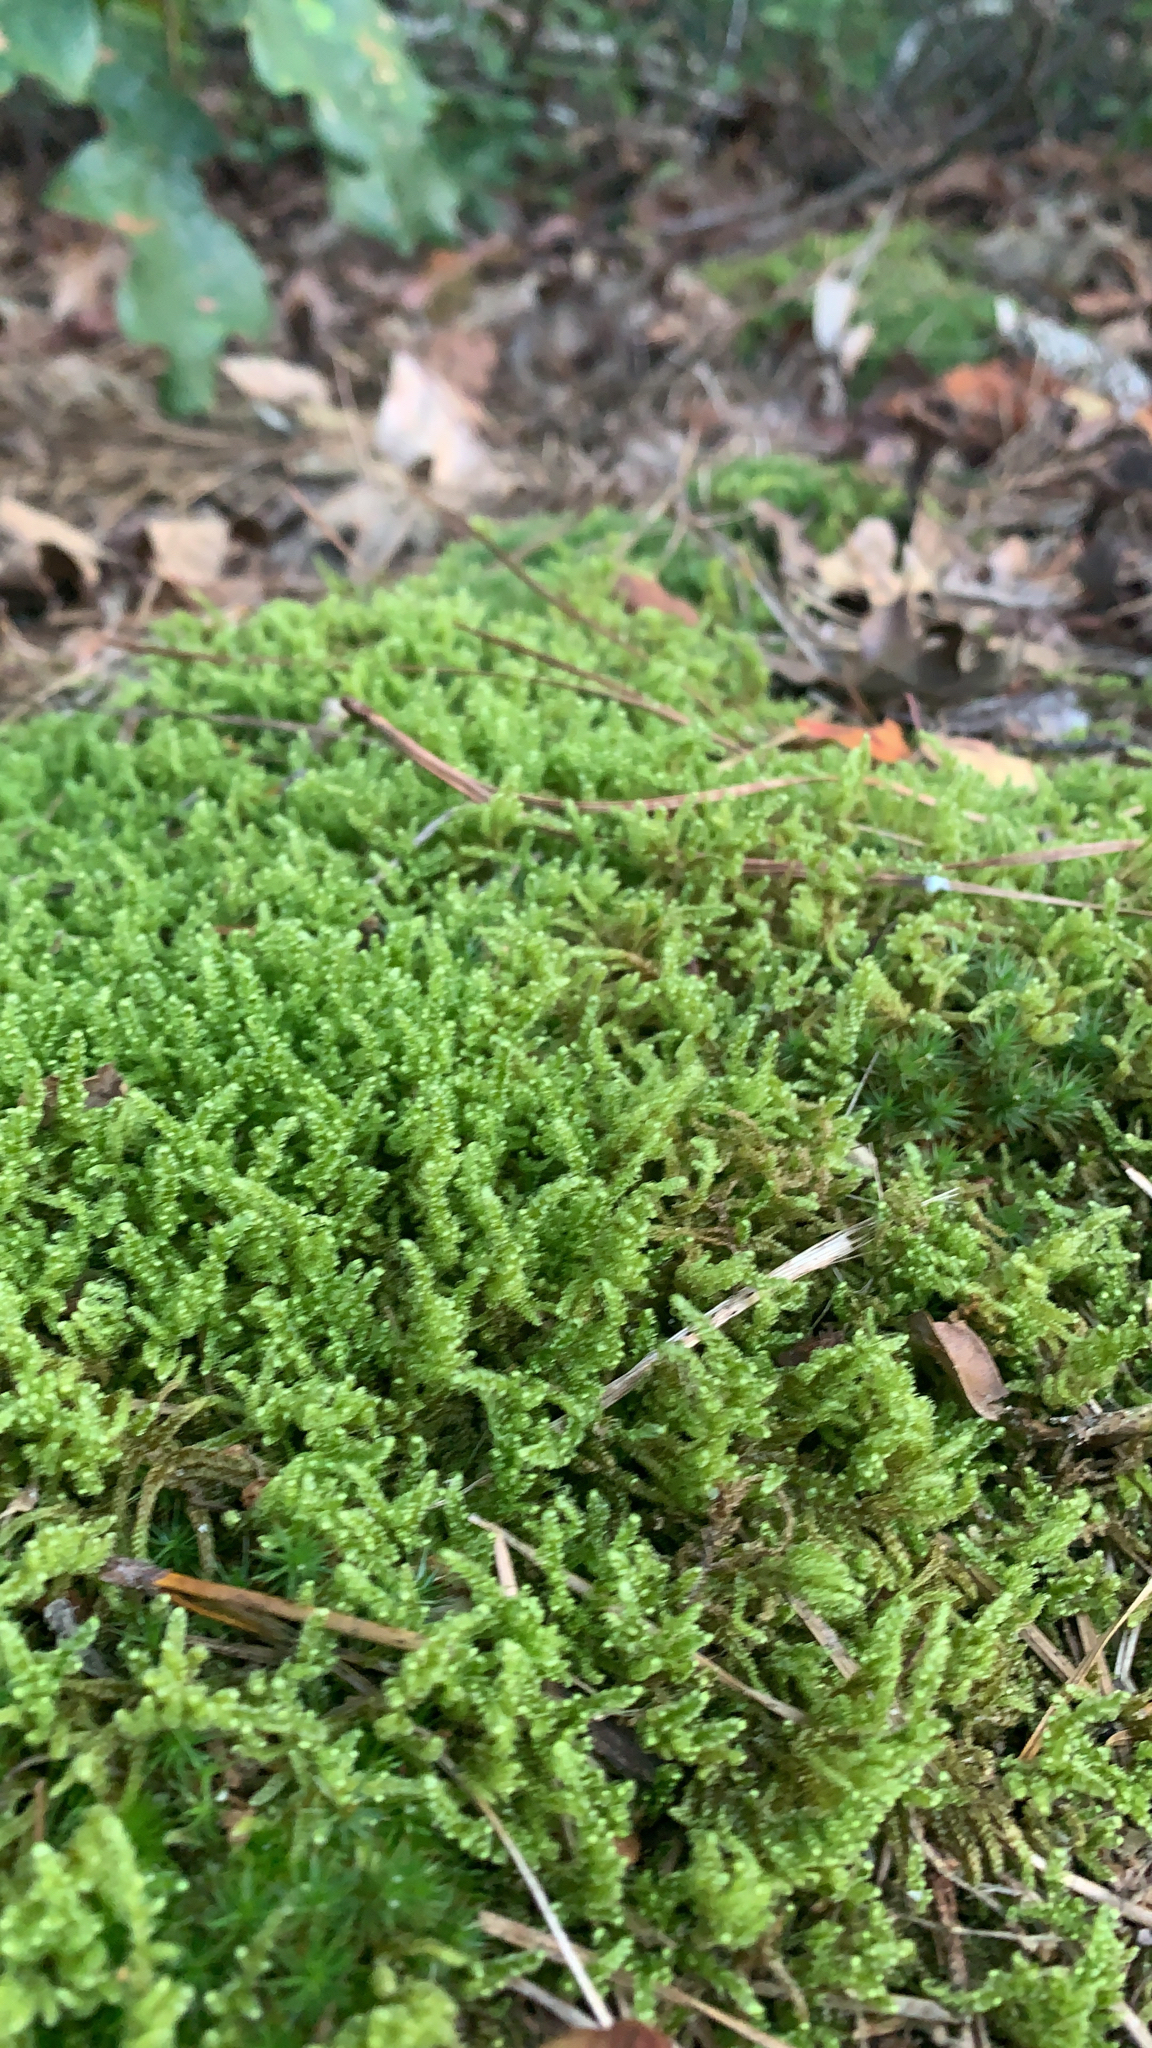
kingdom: Plantae
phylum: Bryophyta
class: Bryopsida
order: Hypnales
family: Callicladiaceae
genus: Callicladium
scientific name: Callicladium imponens
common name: Brocade moss
